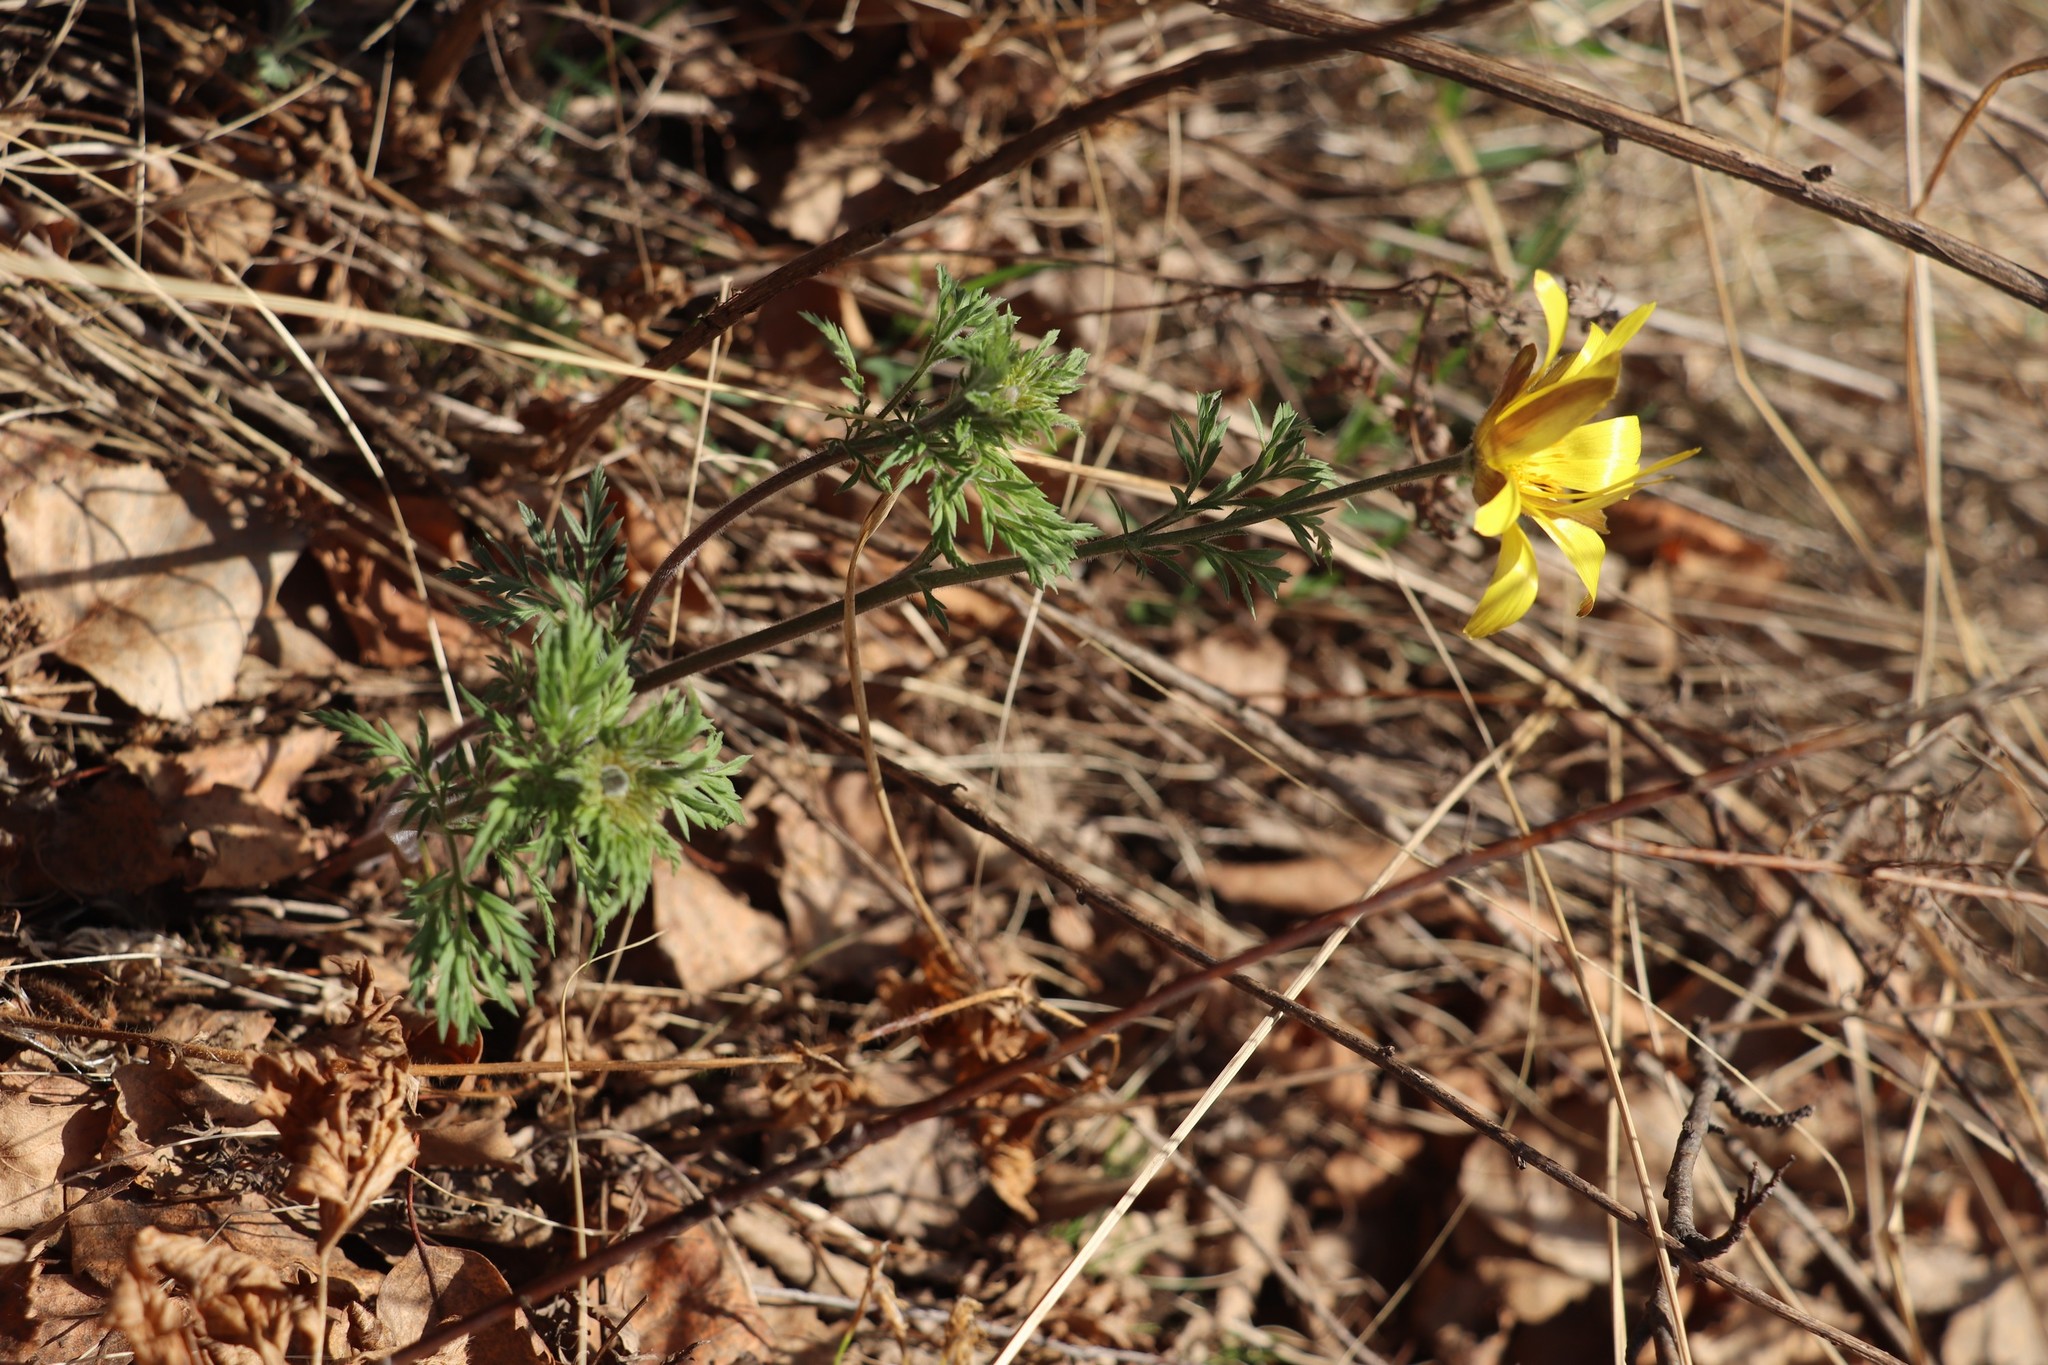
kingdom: Plantae
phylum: Tracheophyta
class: Magnoliopsida
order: Ranunculales
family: Ranunculaceae
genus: Adonis
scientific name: Adonis villosa
